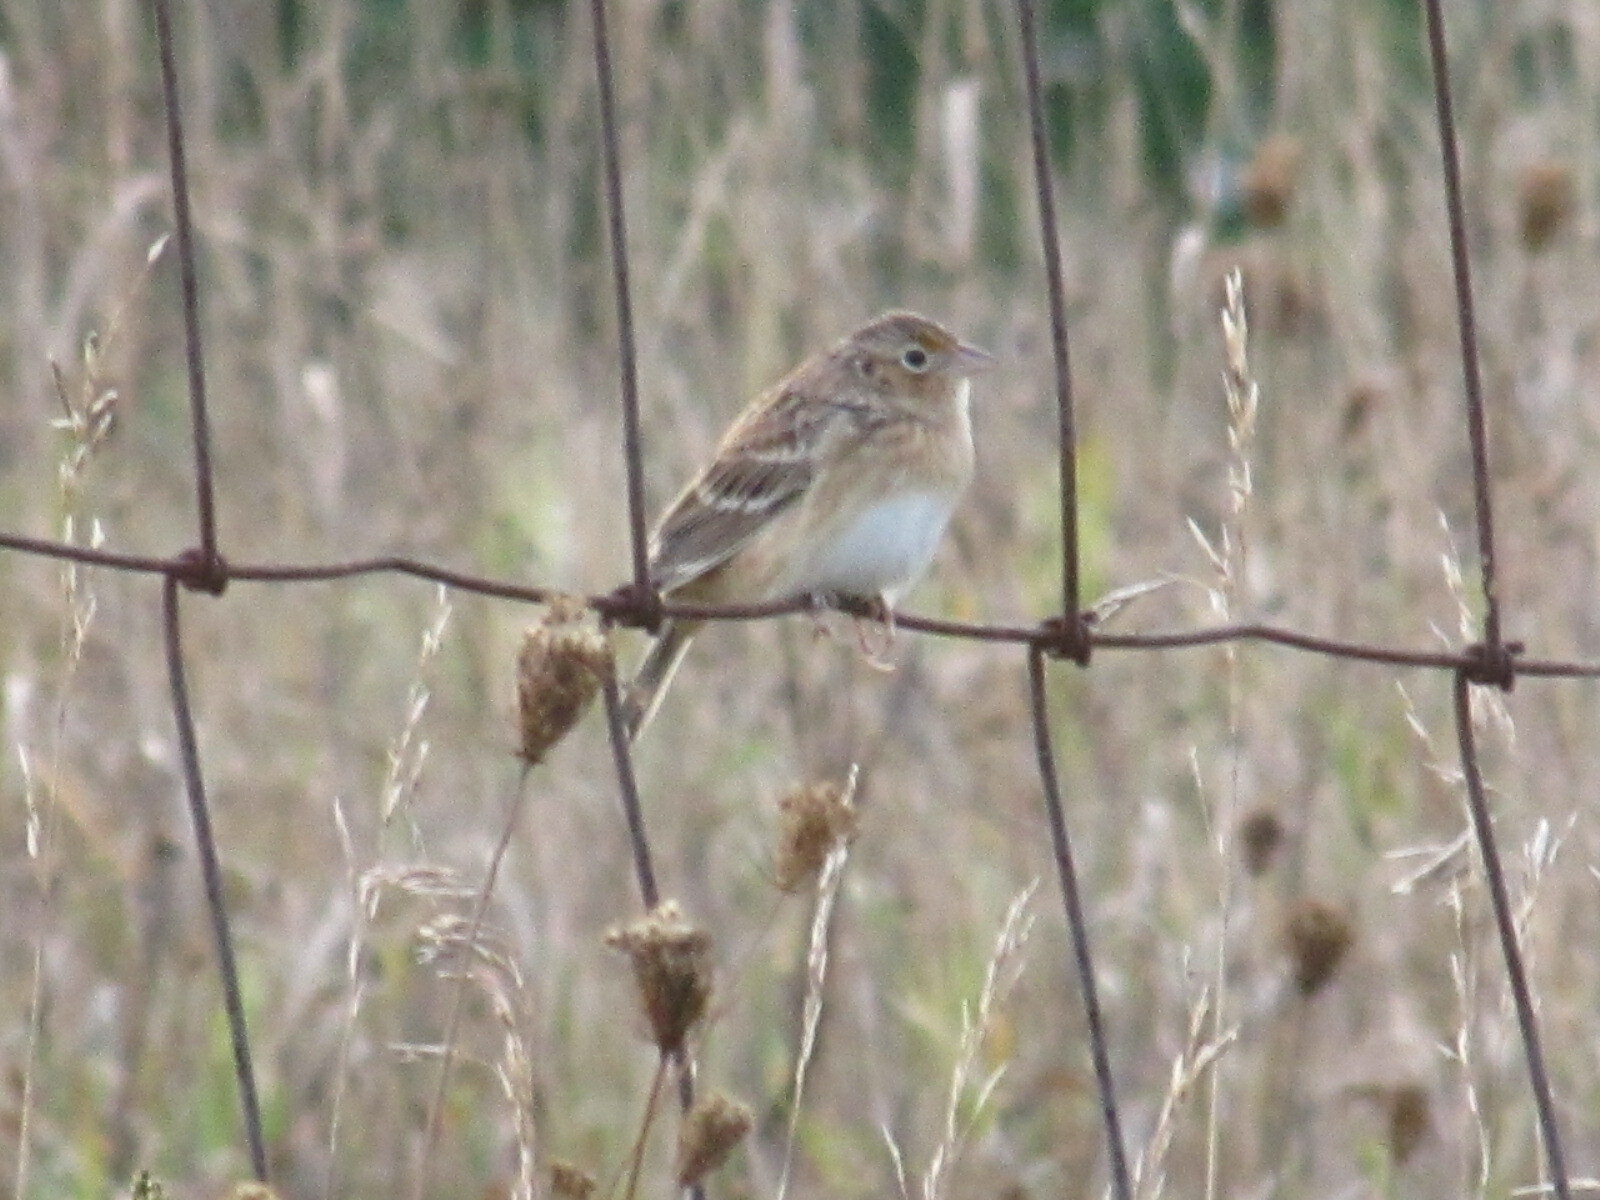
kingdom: Animalia
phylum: Chordata
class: Aves
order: Passeriformes
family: Passerellidae
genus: Ammodramus
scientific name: Ammodramus savannarum
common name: Grasshopper sparrow
